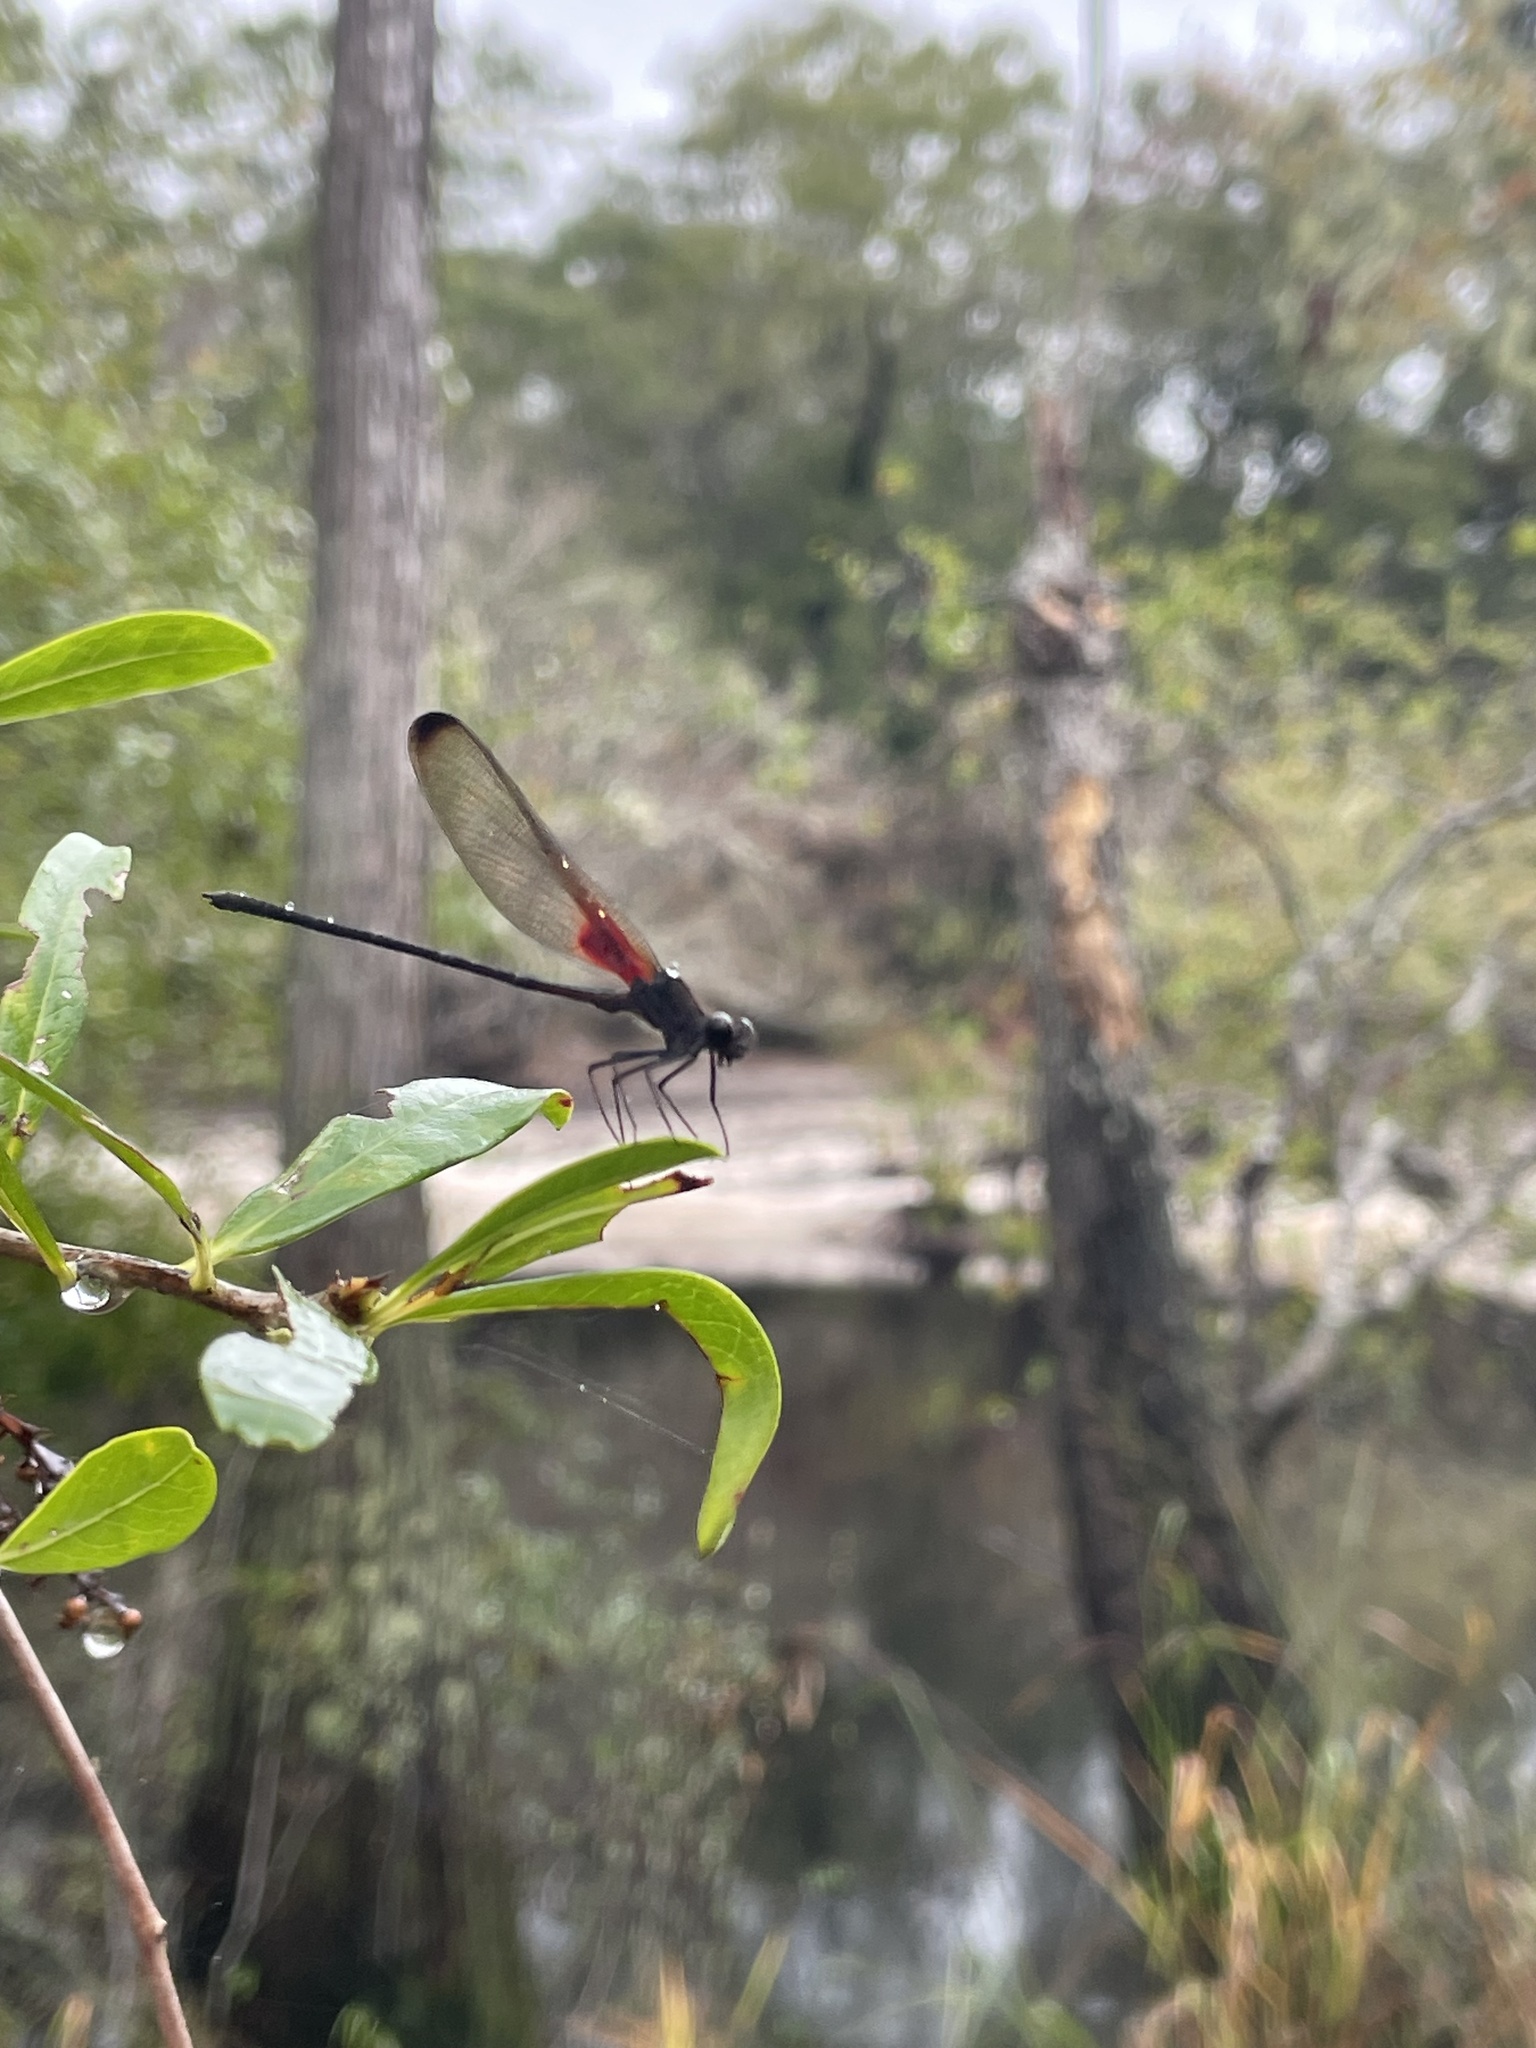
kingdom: Animalia
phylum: Arthropoda
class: Insecta
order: Odonata
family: Calopterygidae
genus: Hetaerina
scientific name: Hetaerina titia
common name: Smoky rubyspot
